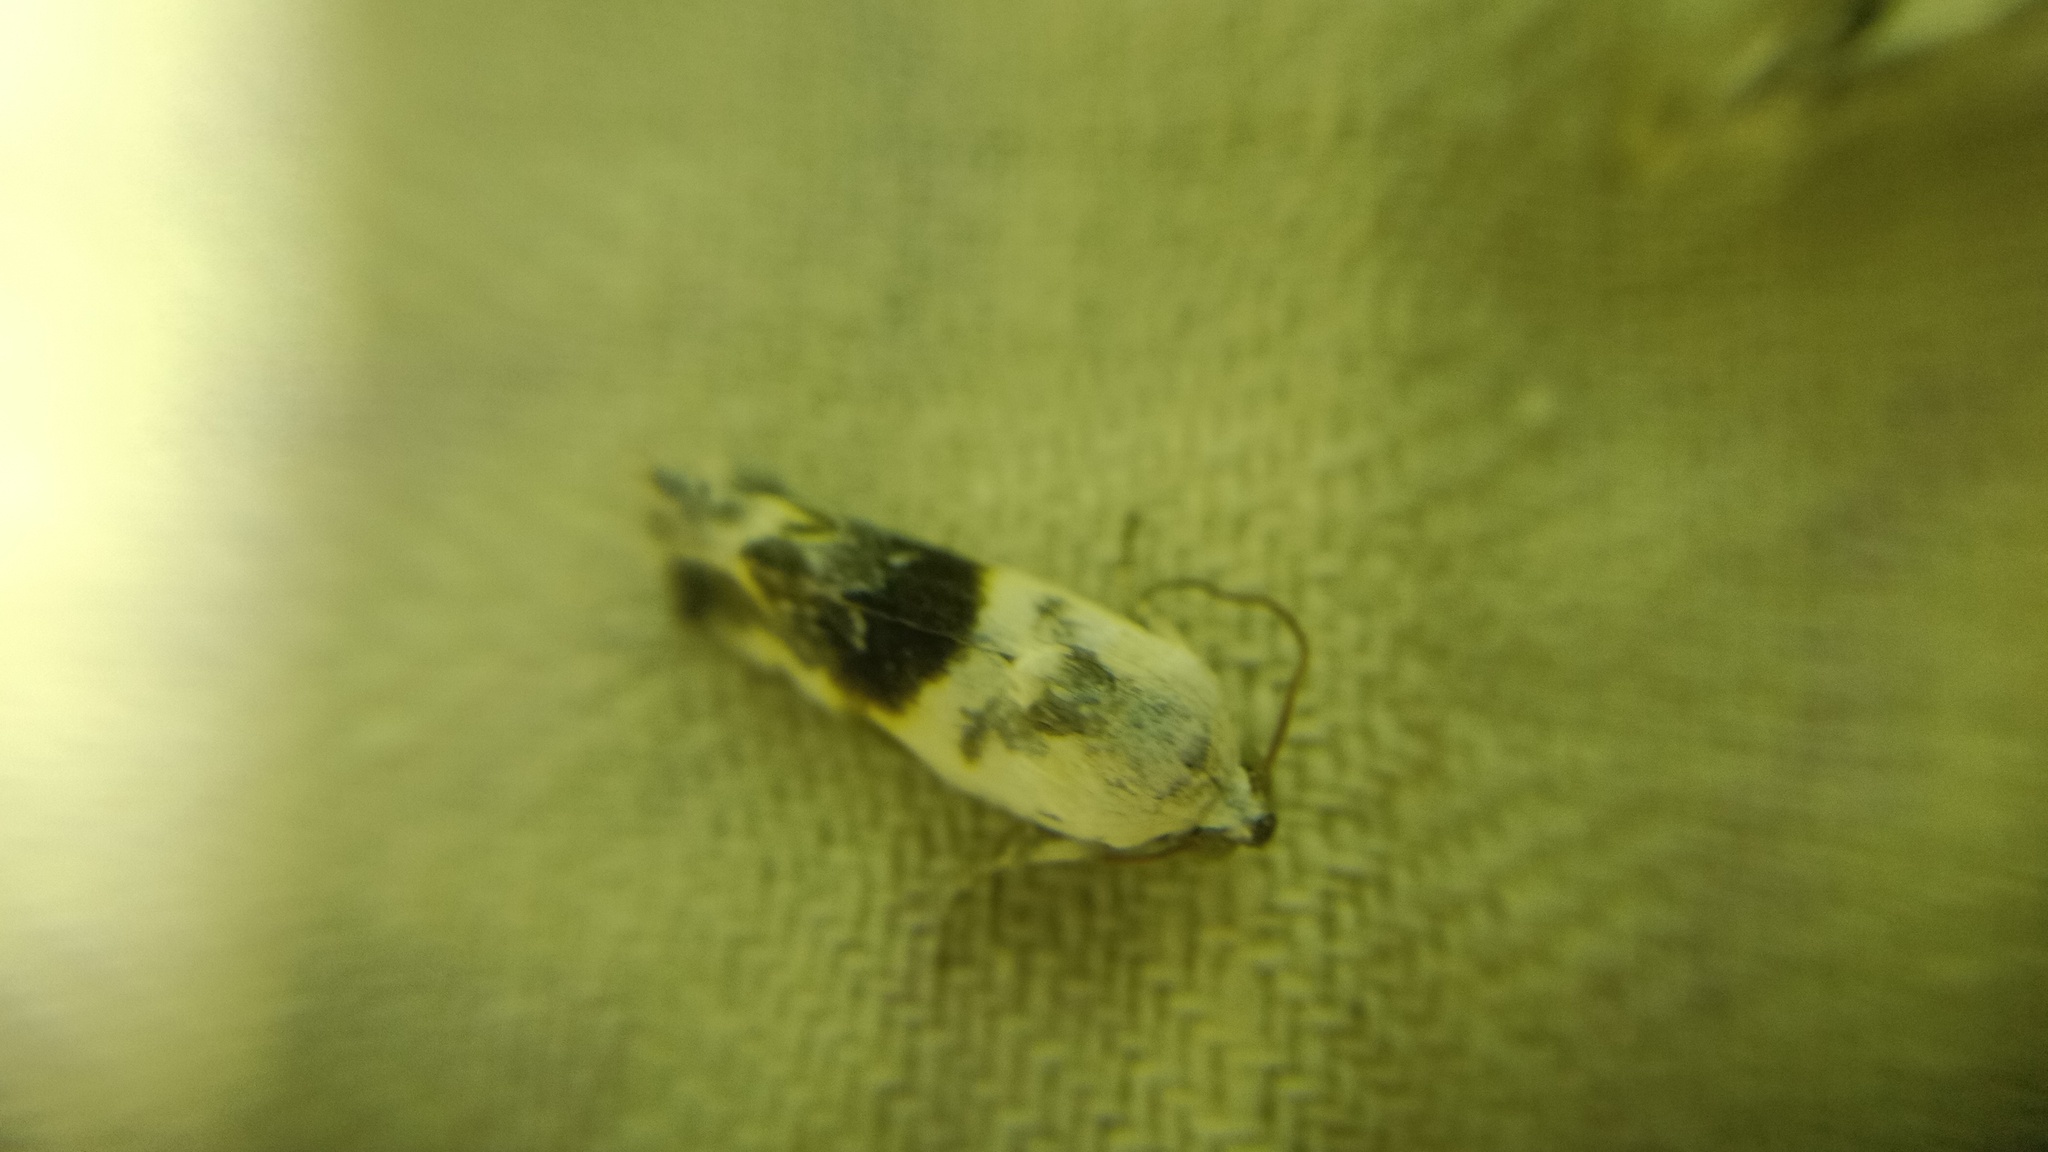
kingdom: Animalia
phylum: Arthropoda
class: Insecta
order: Lepidoptera
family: Noctuidae
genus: Acontia
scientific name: Acontia candefacta
